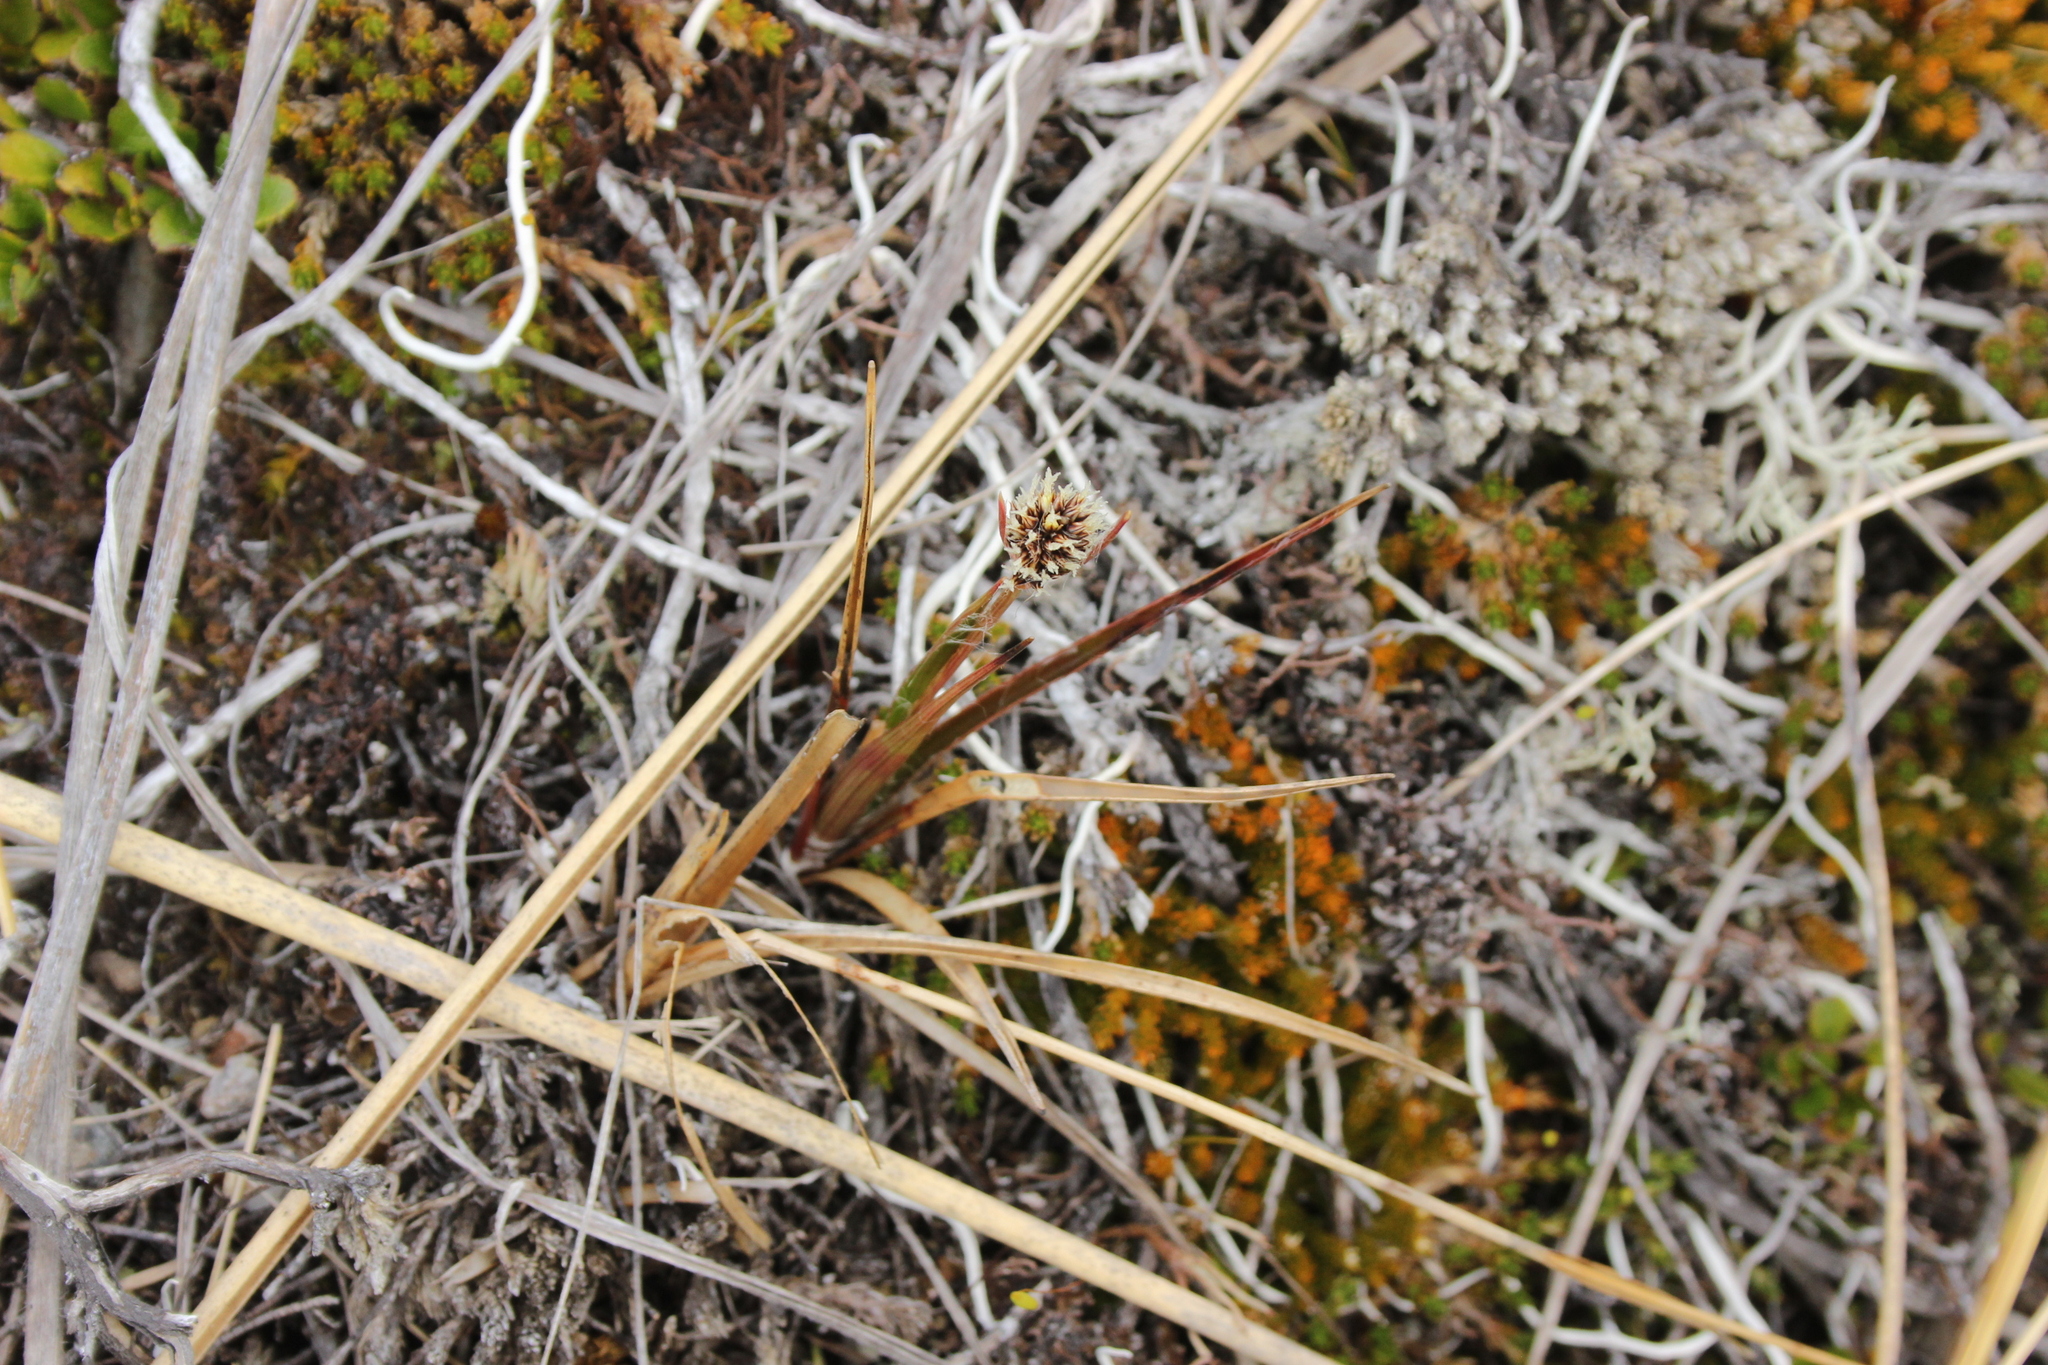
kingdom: Plantae
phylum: Tracheophyta
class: Liliopsida
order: Poales
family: Juncaceae
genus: Luzula
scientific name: Luzula rufa
